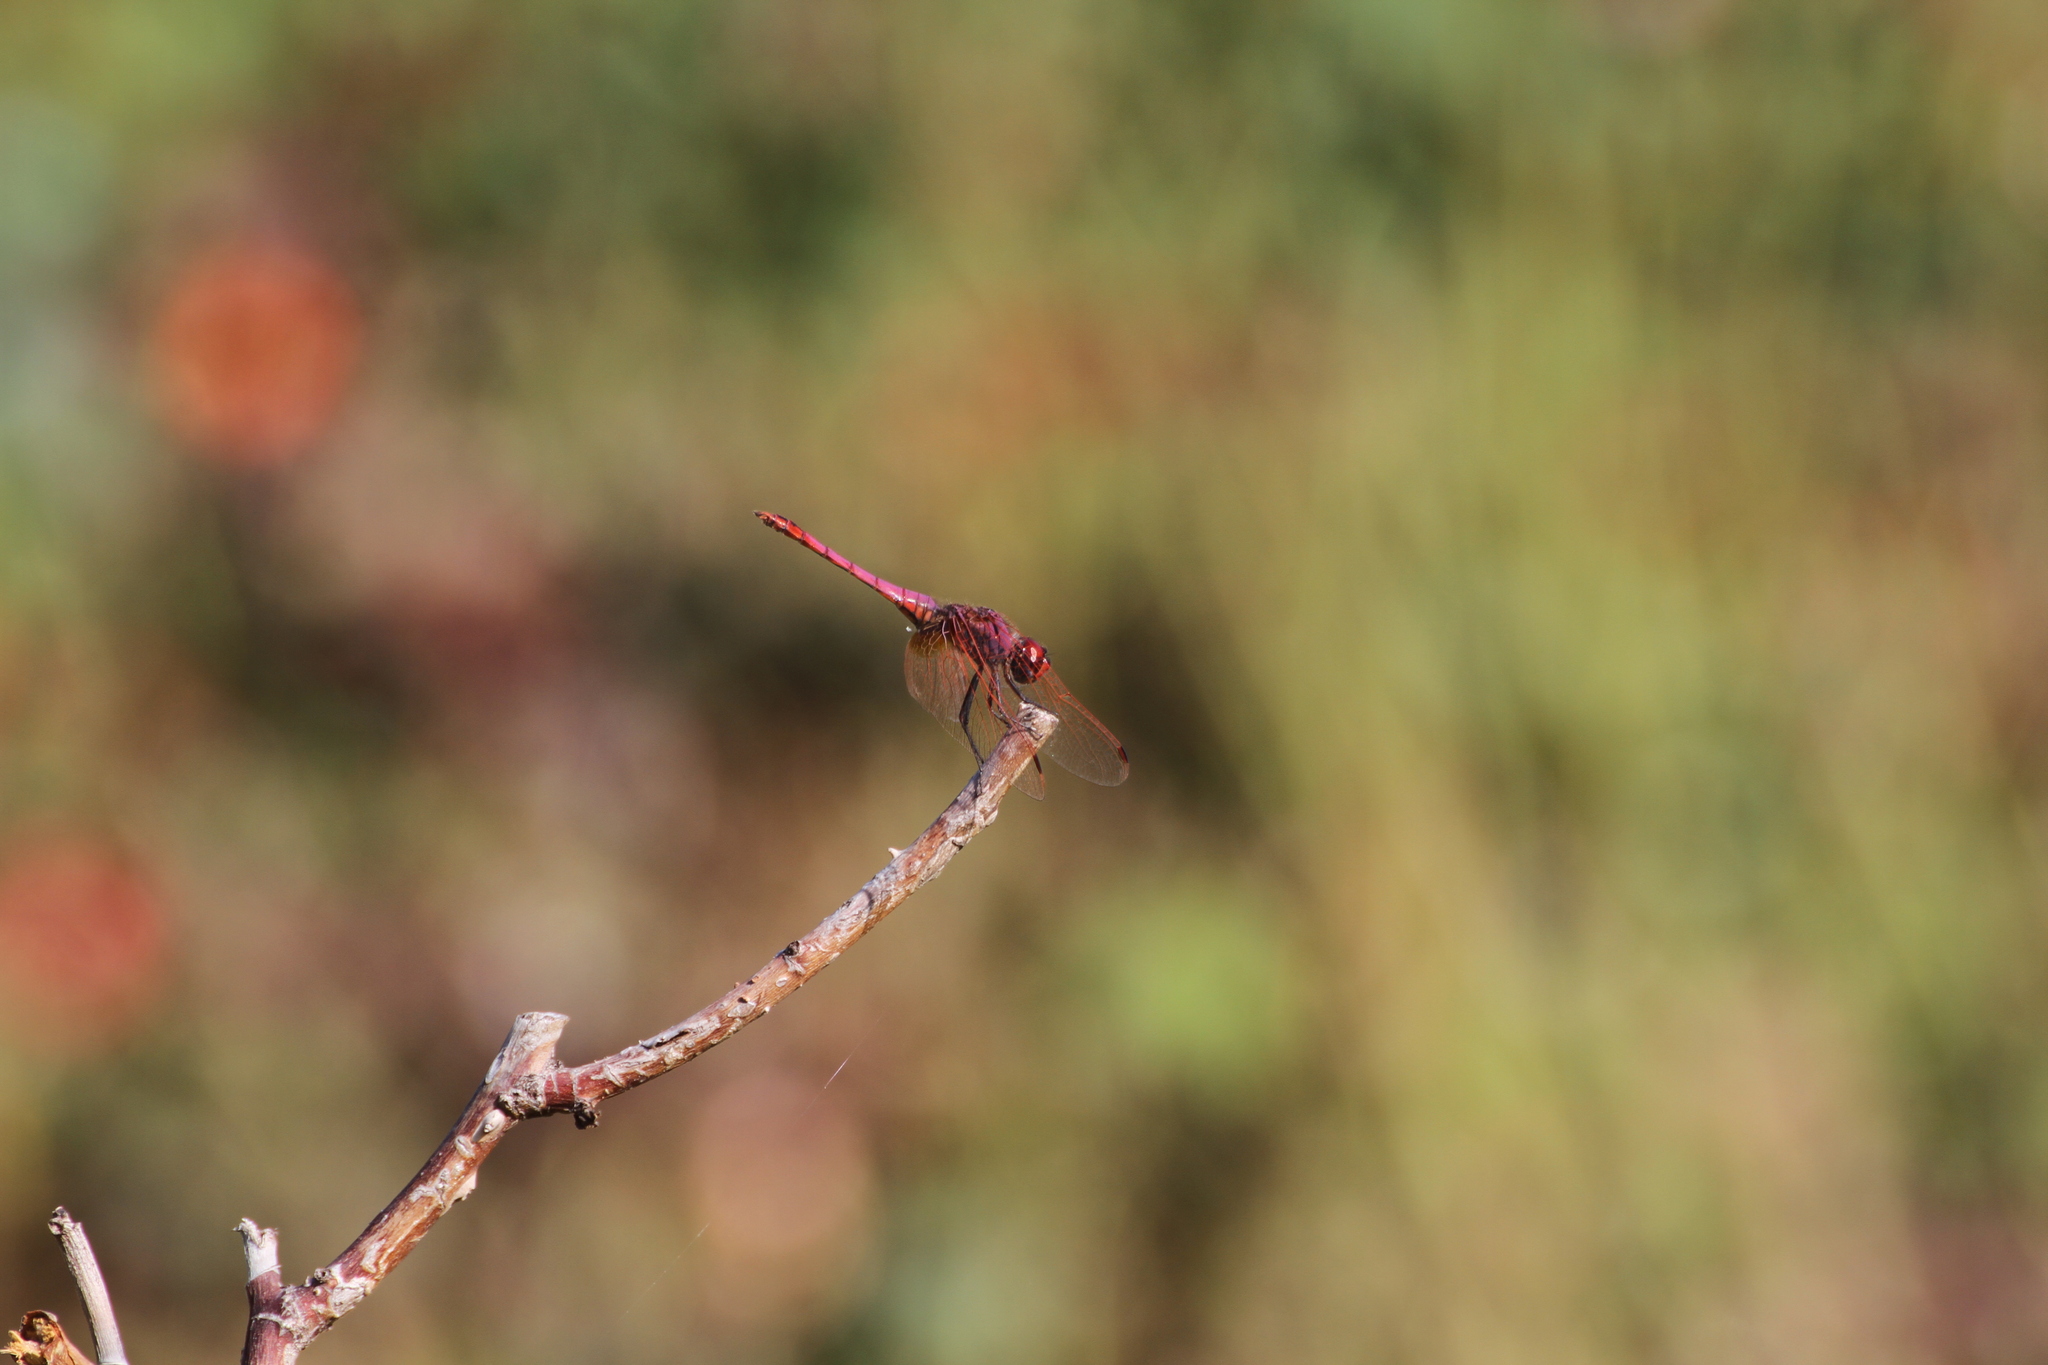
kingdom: Animalia
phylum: Arthropoda
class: Insecta
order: Odonata
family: Libellulidae
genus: Trithemis
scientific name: Trithemis annulata
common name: Violet dropwing
